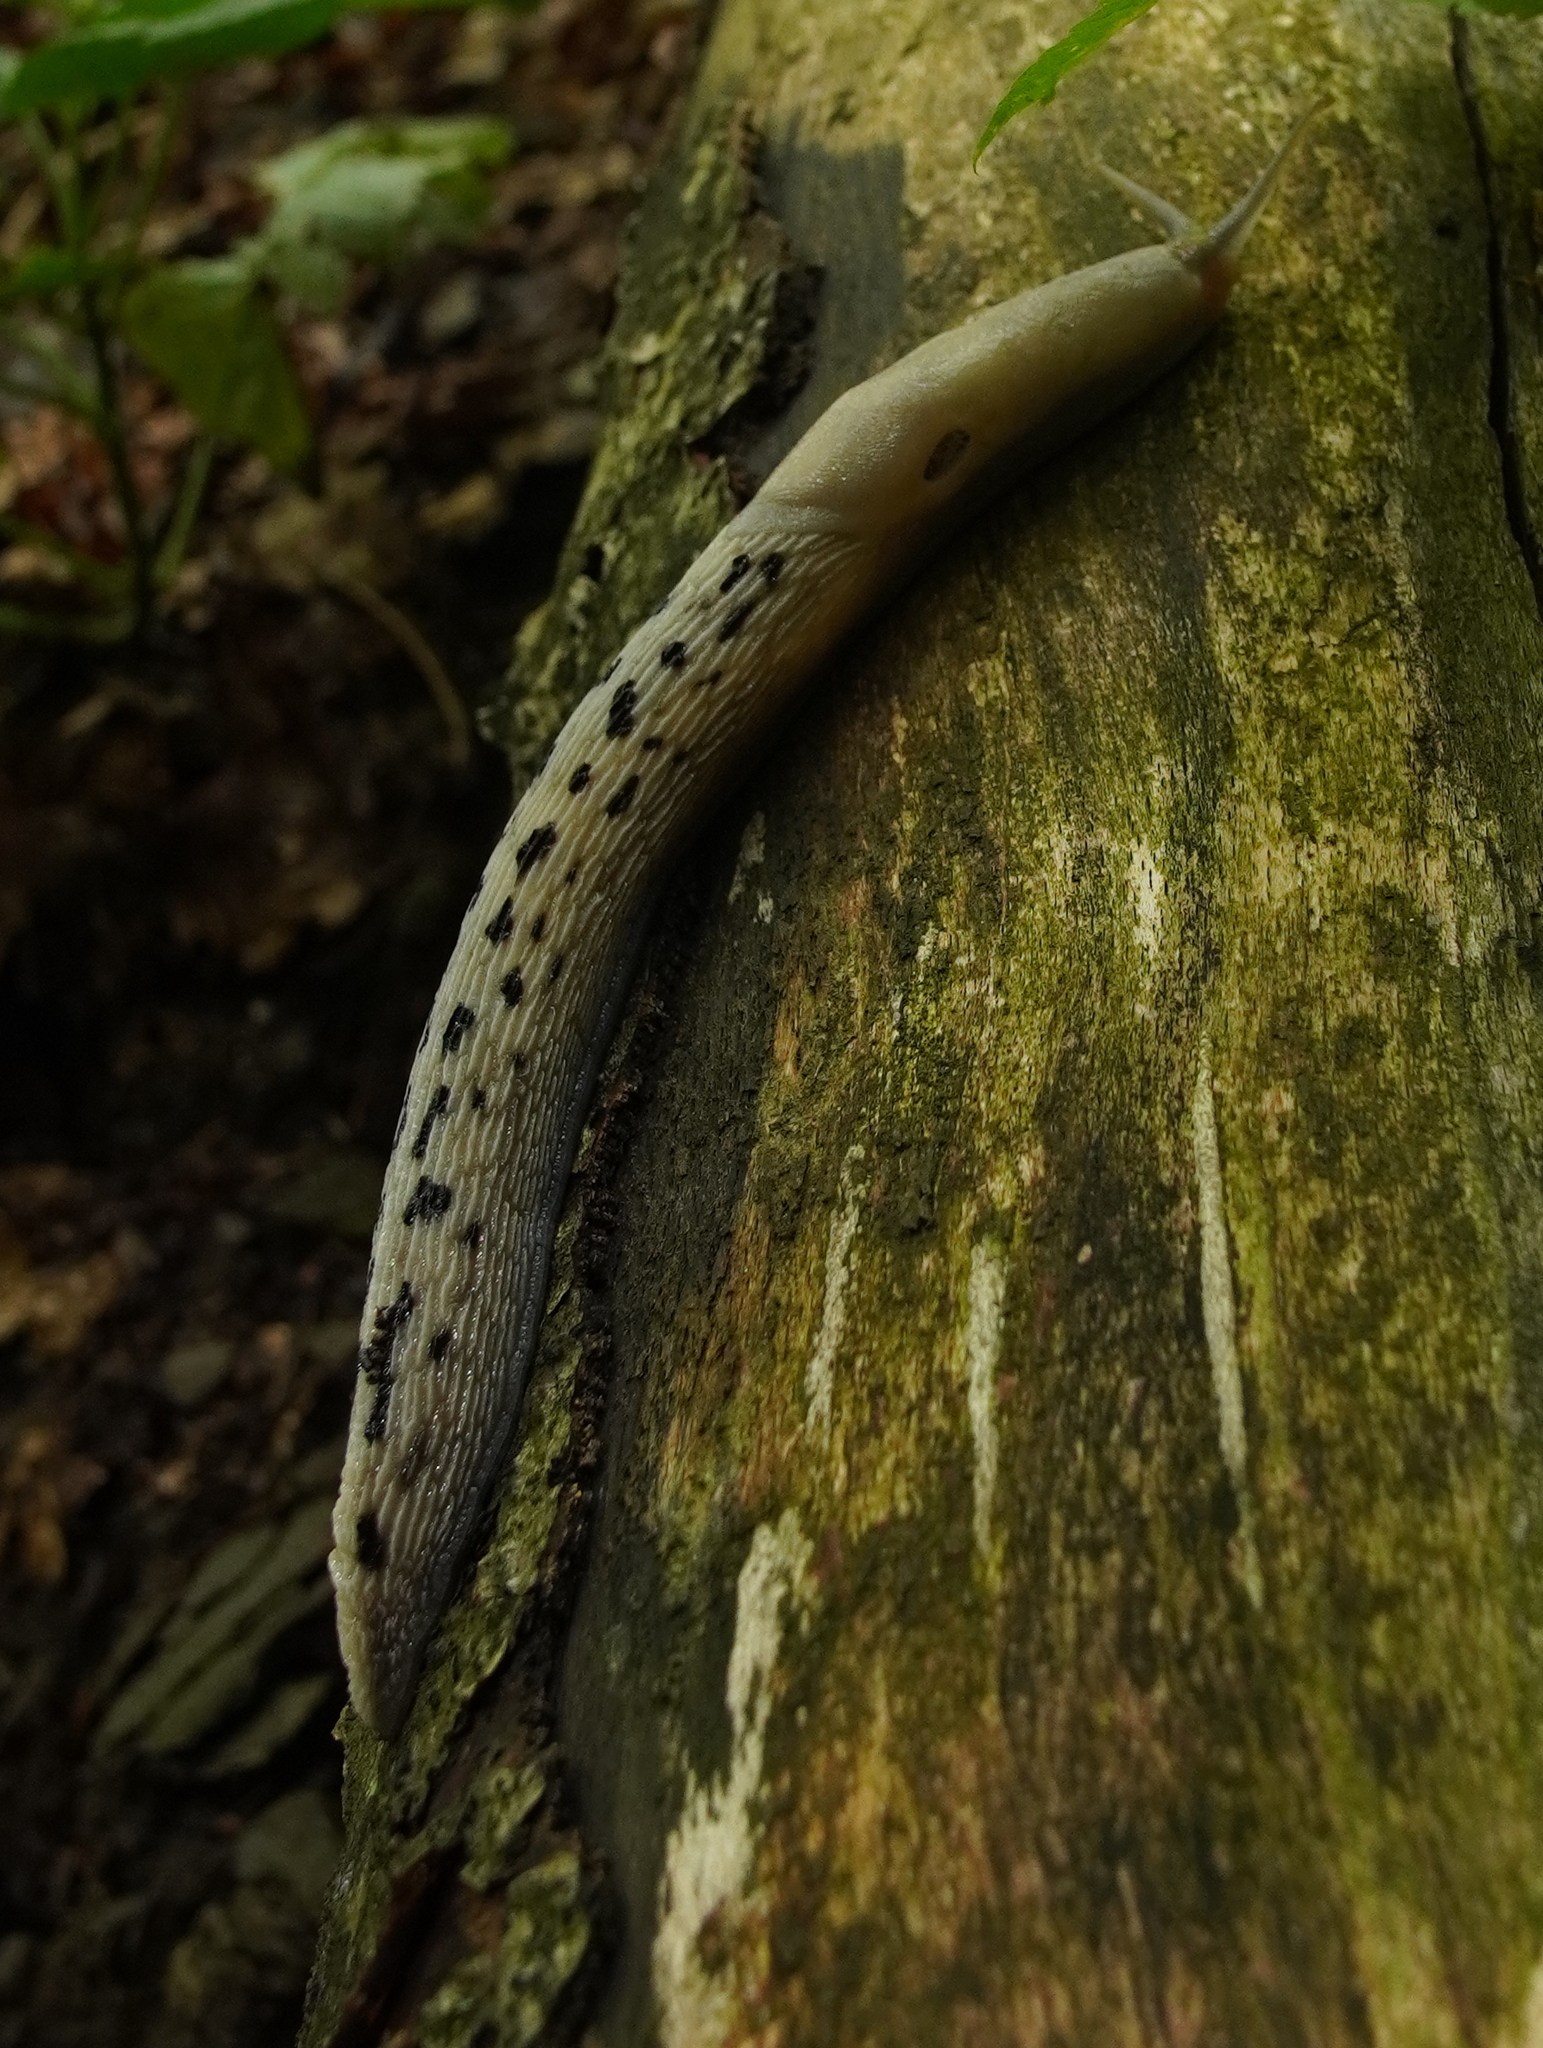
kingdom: Animalia
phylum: Mollusca
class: Gastropoda
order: Stylommatophora
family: Limacidae
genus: Limax
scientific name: Limax cinereoniger
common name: Ash-black slug
